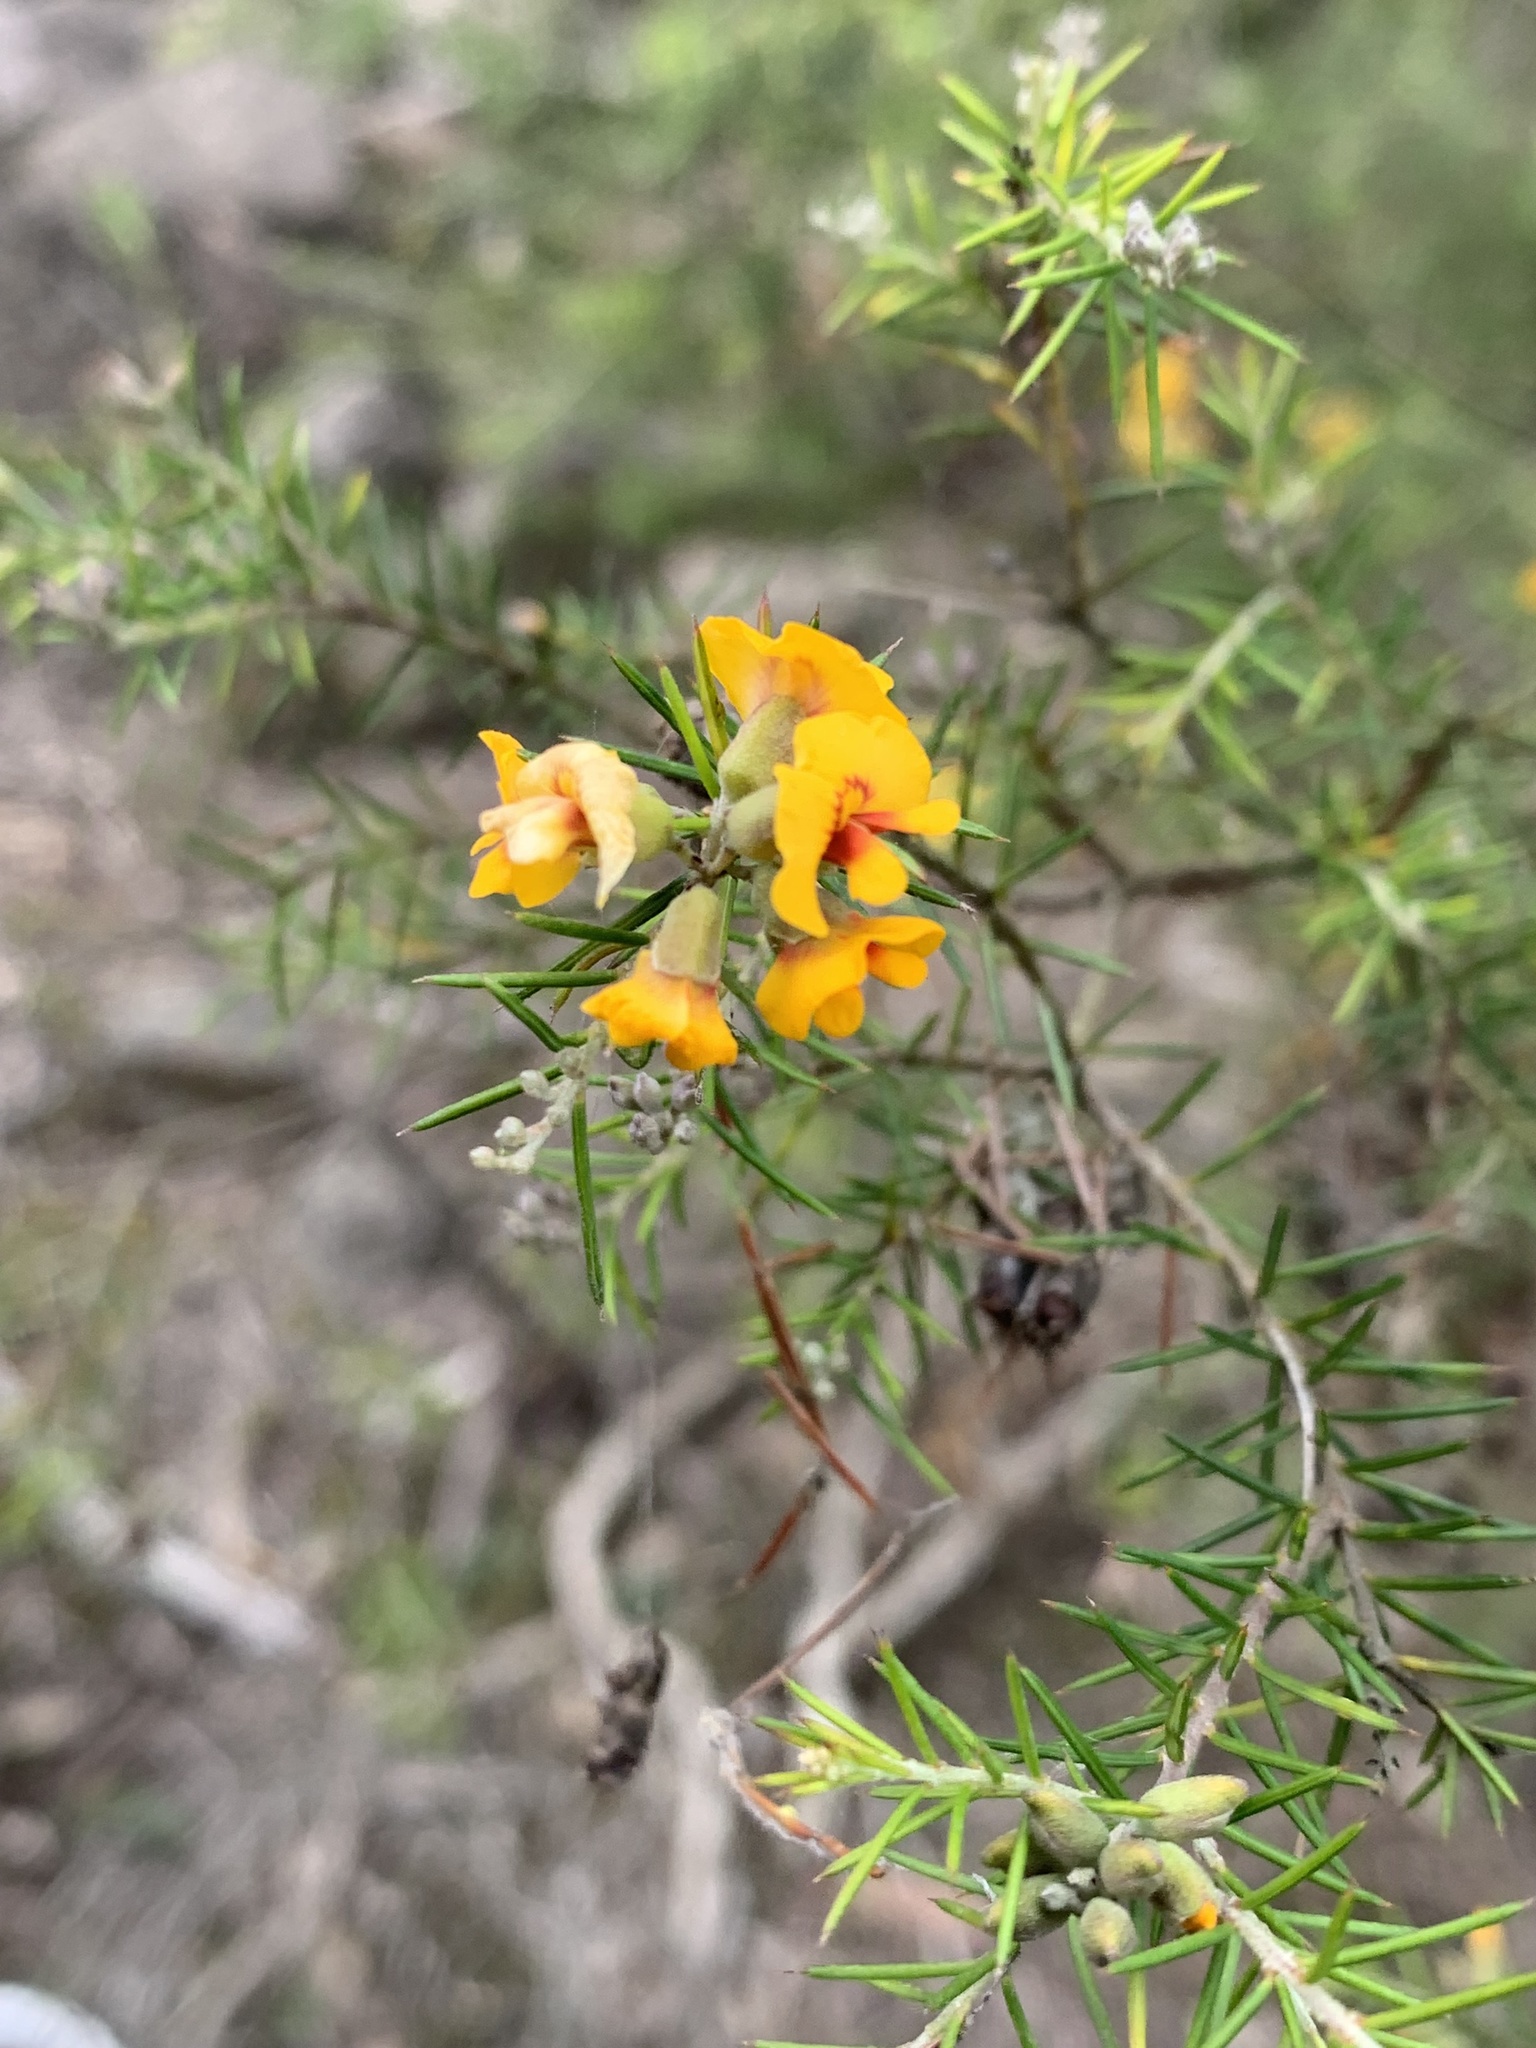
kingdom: Plantae
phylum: Tracheophyta
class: Magnoliopsida
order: Fabales
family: Fabaceae
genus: Dillwynia
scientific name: Dillwynia sieberi
